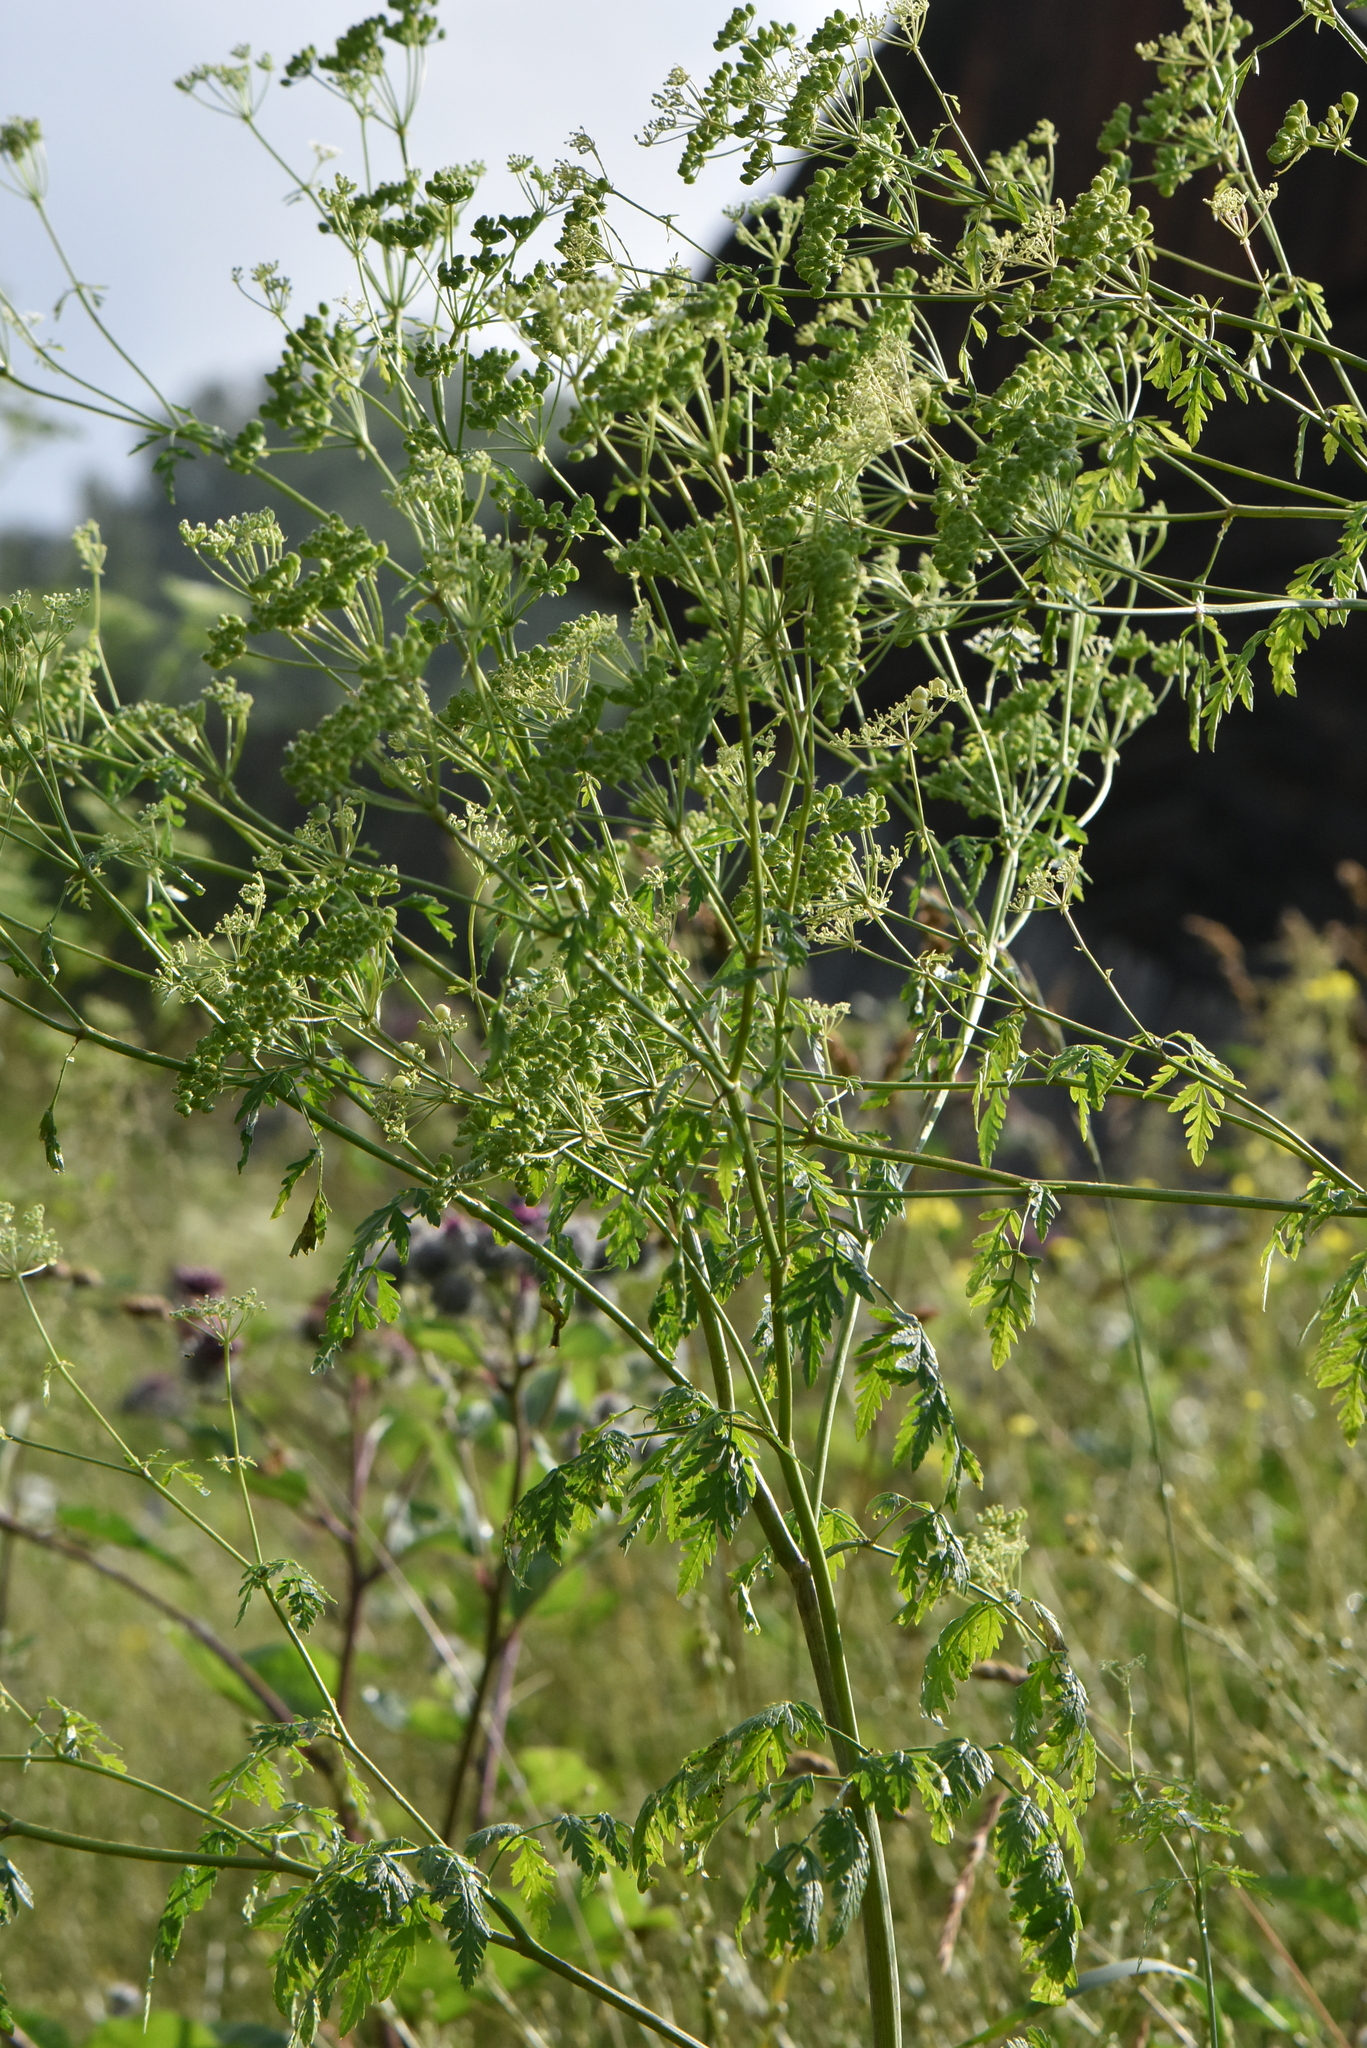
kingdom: Plantae
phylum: Tracheophyta
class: Magnoliopsida
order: Apiales
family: Apiaceae
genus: Conium
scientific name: Conium maculatum
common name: Hemlock
